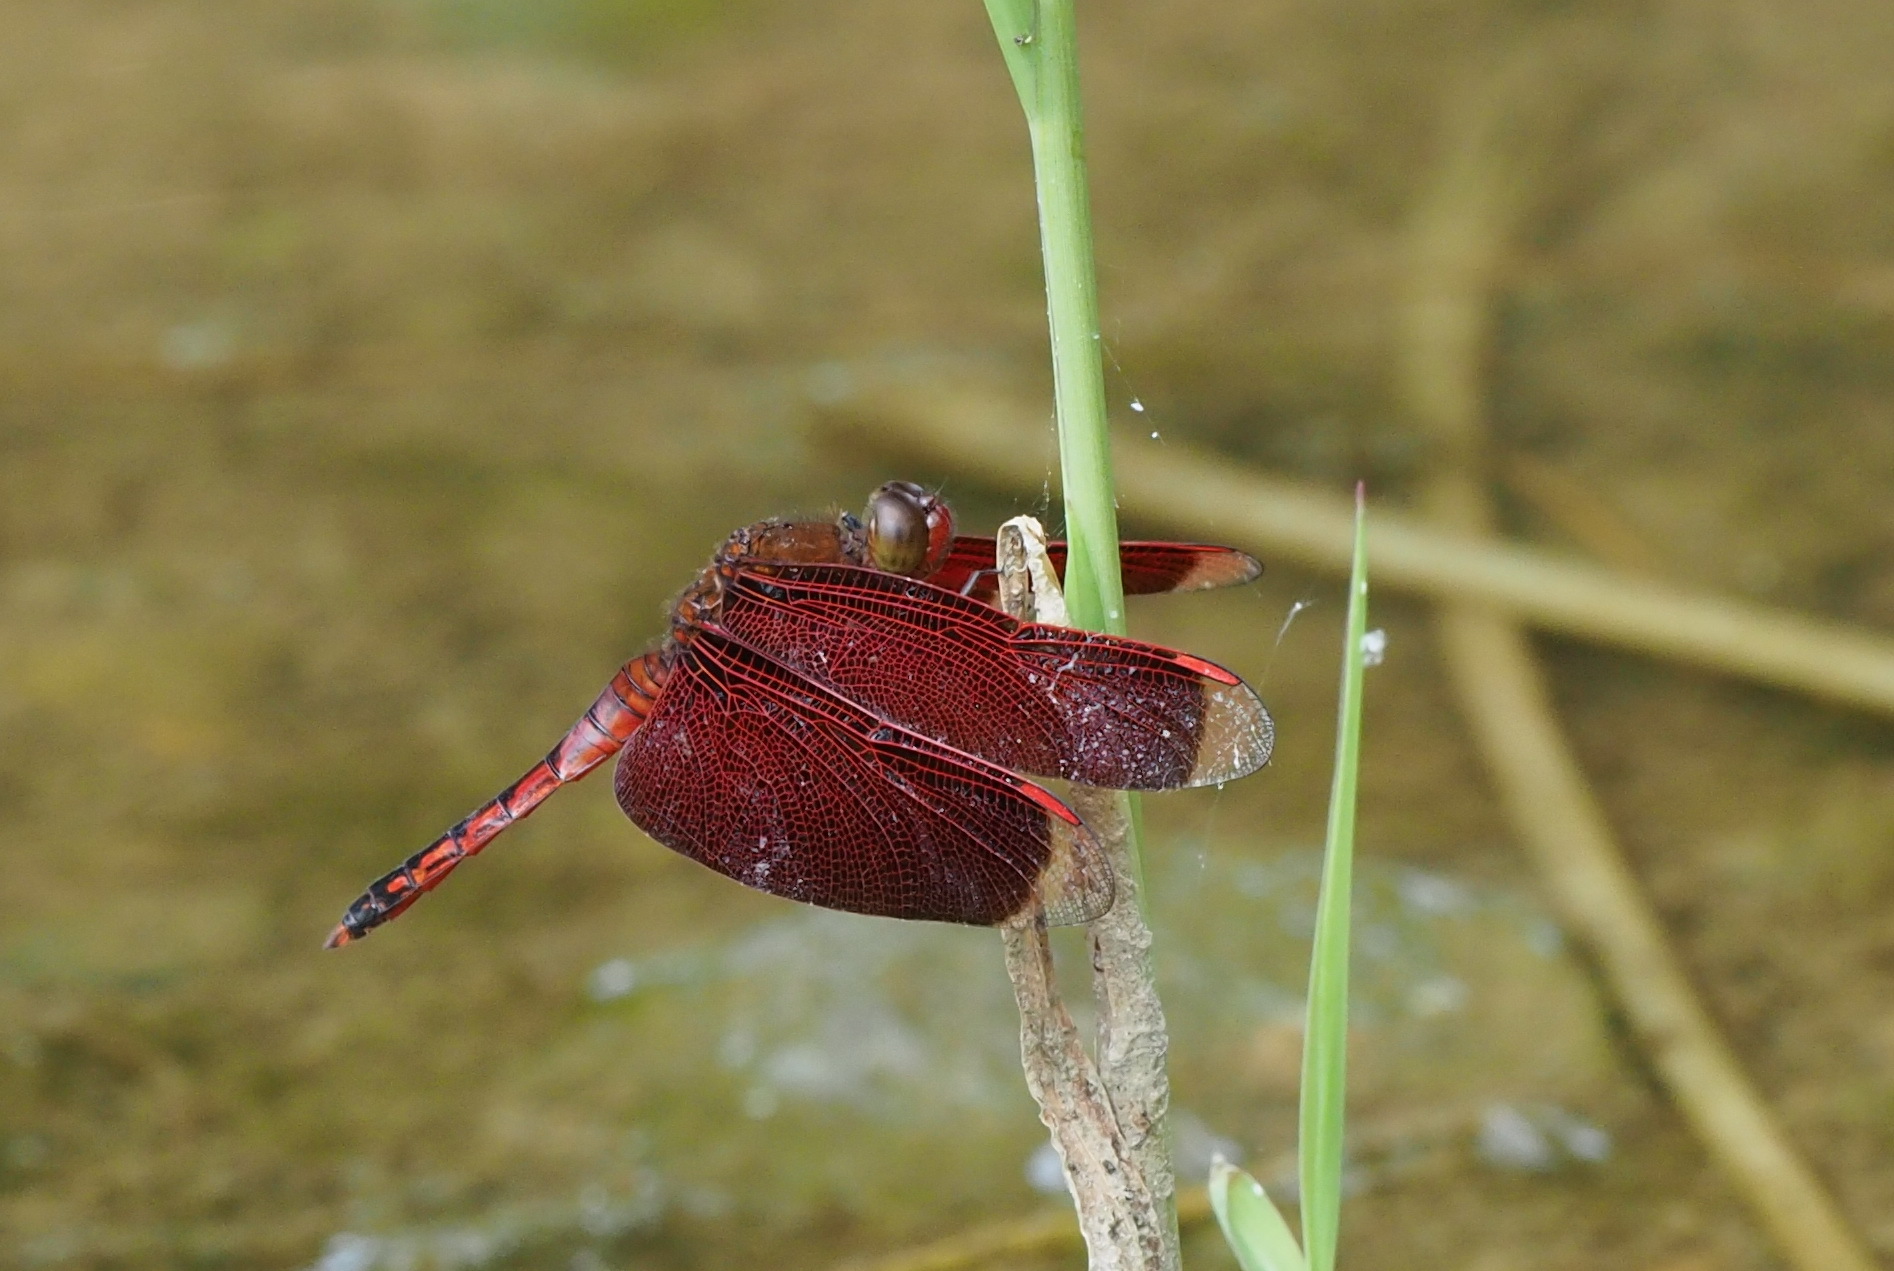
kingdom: Animalia
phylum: Arthropoda
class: Insecta
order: Odonata
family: Libellulidae
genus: Neurothemis
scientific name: Neurothemis taiwanensis
